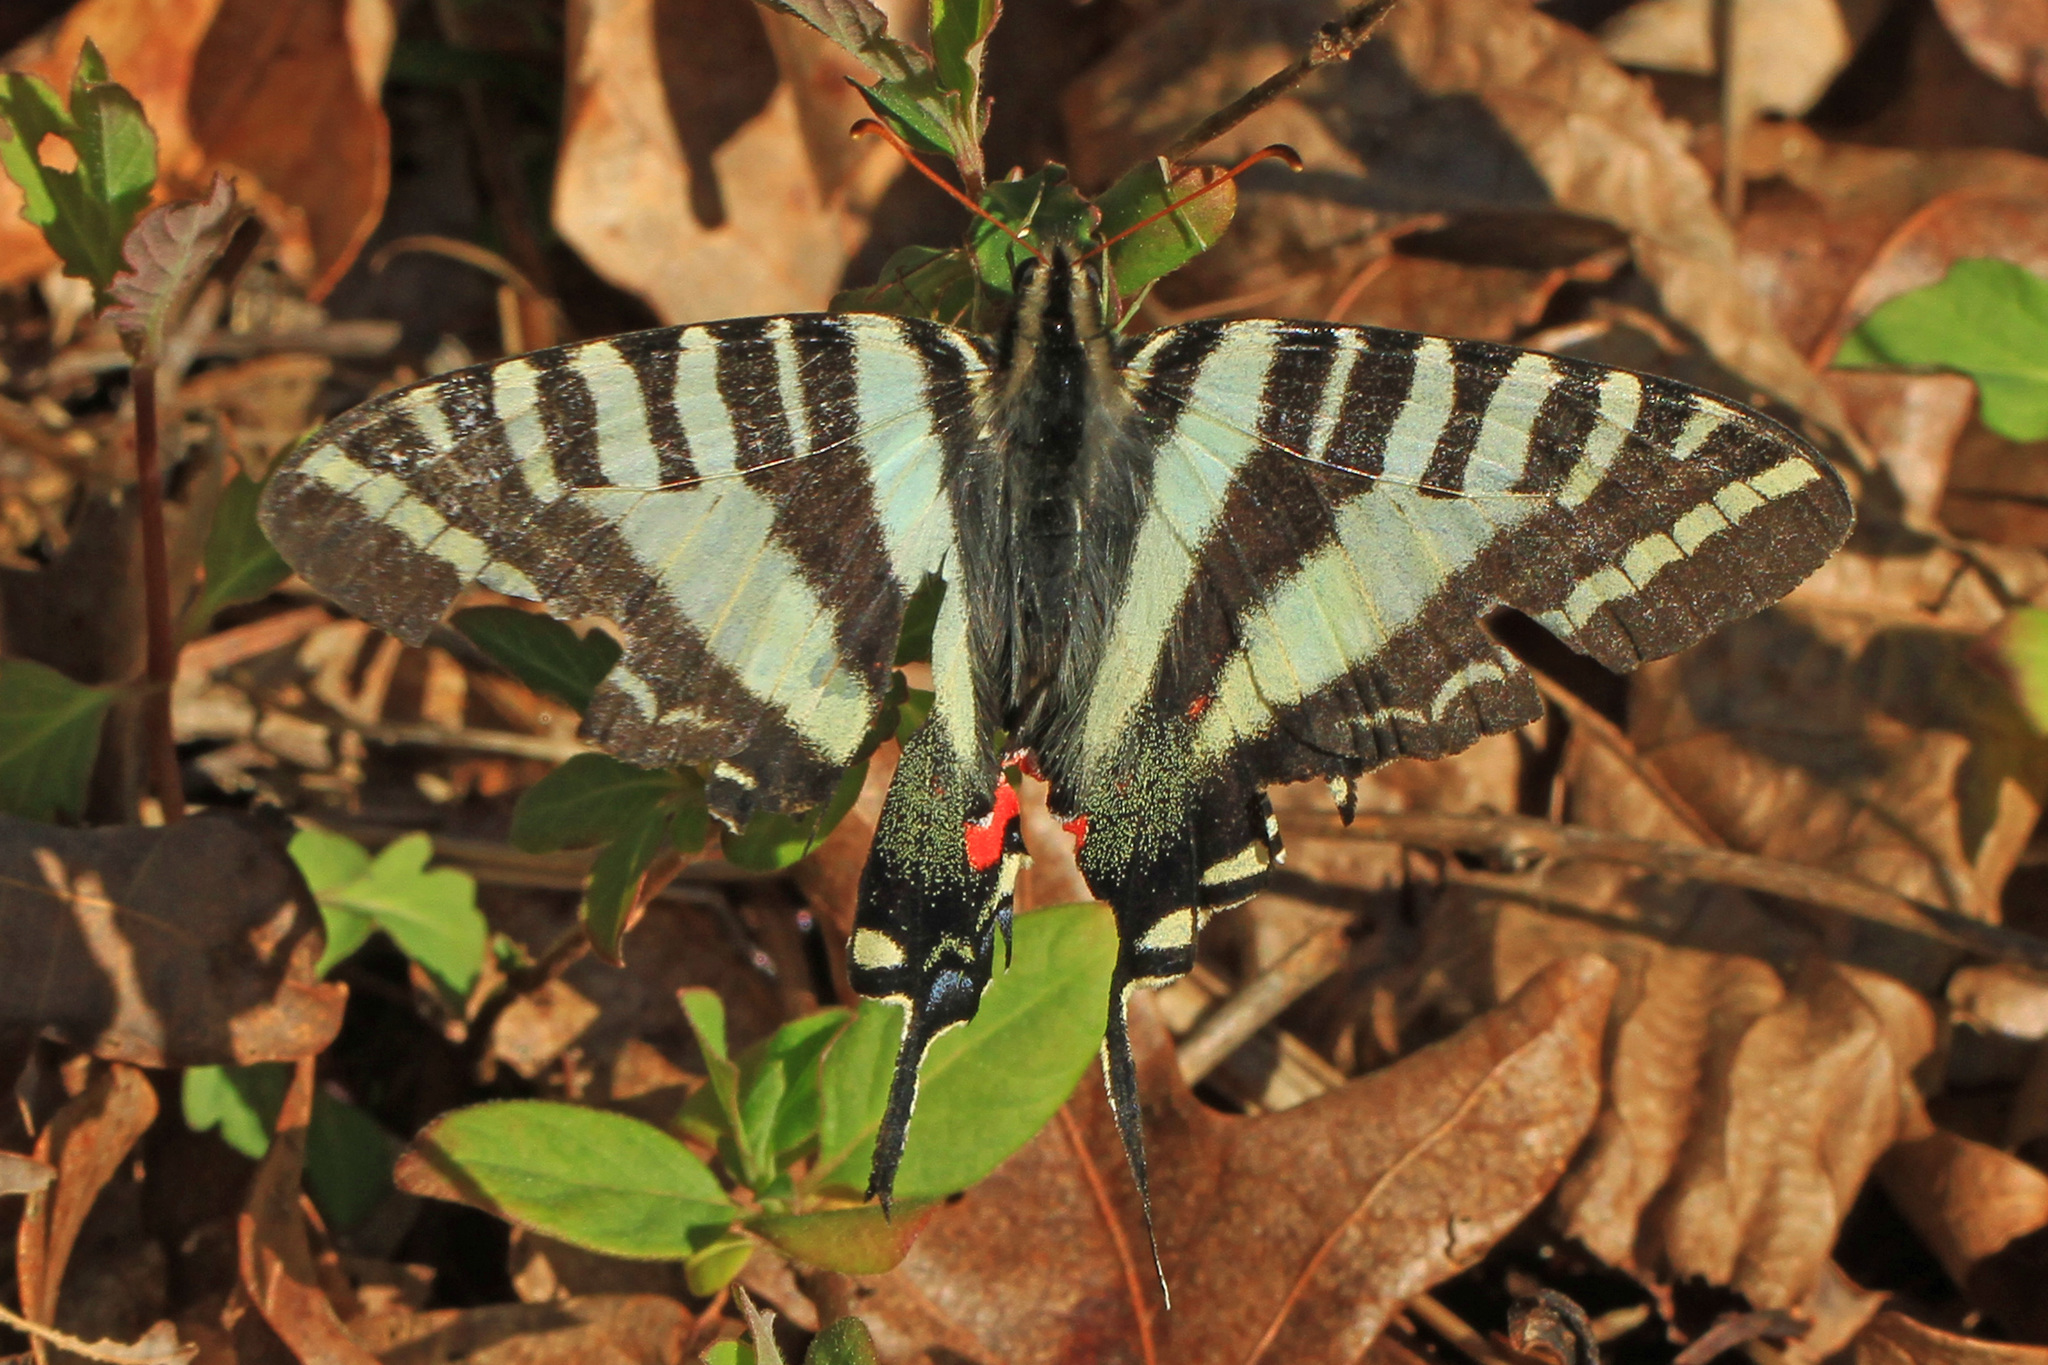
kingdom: Animalia
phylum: Arthropoda
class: Insecta
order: Lepidoptera
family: Papilionidae
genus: Protographium
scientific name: Protographium marcellus
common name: Zebra swallowtail
